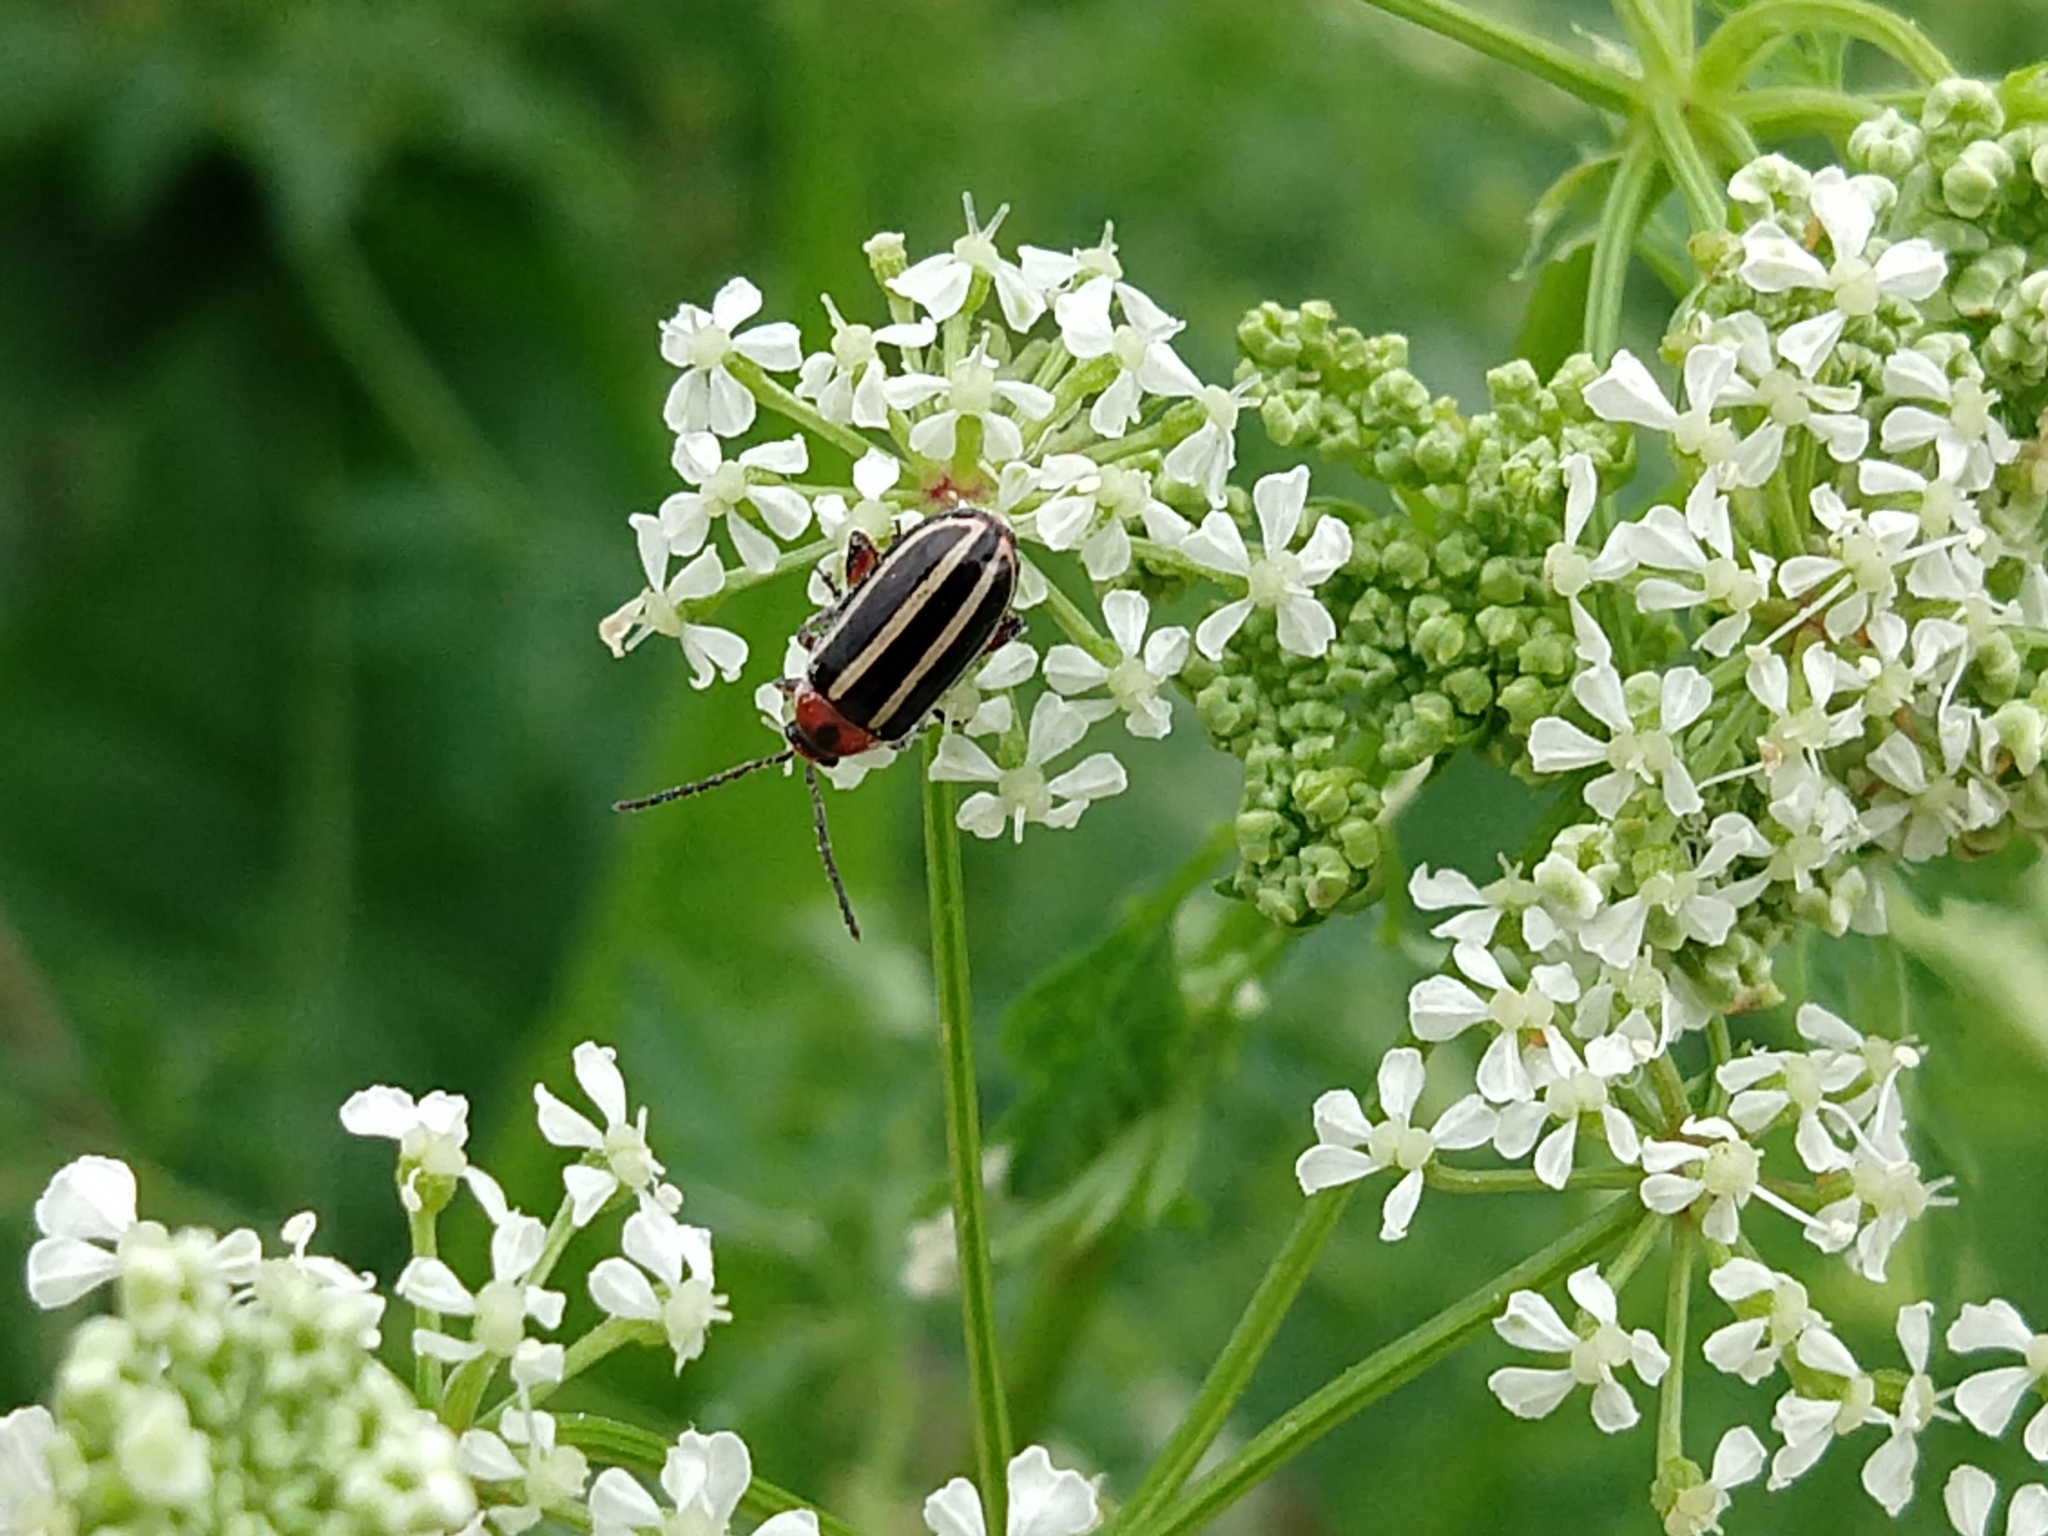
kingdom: Animalia
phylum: Arthropoda
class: Insecta
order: Coleoptera
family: Chrysomelidae
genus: Disonycha
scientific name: Disonycha glabrata
